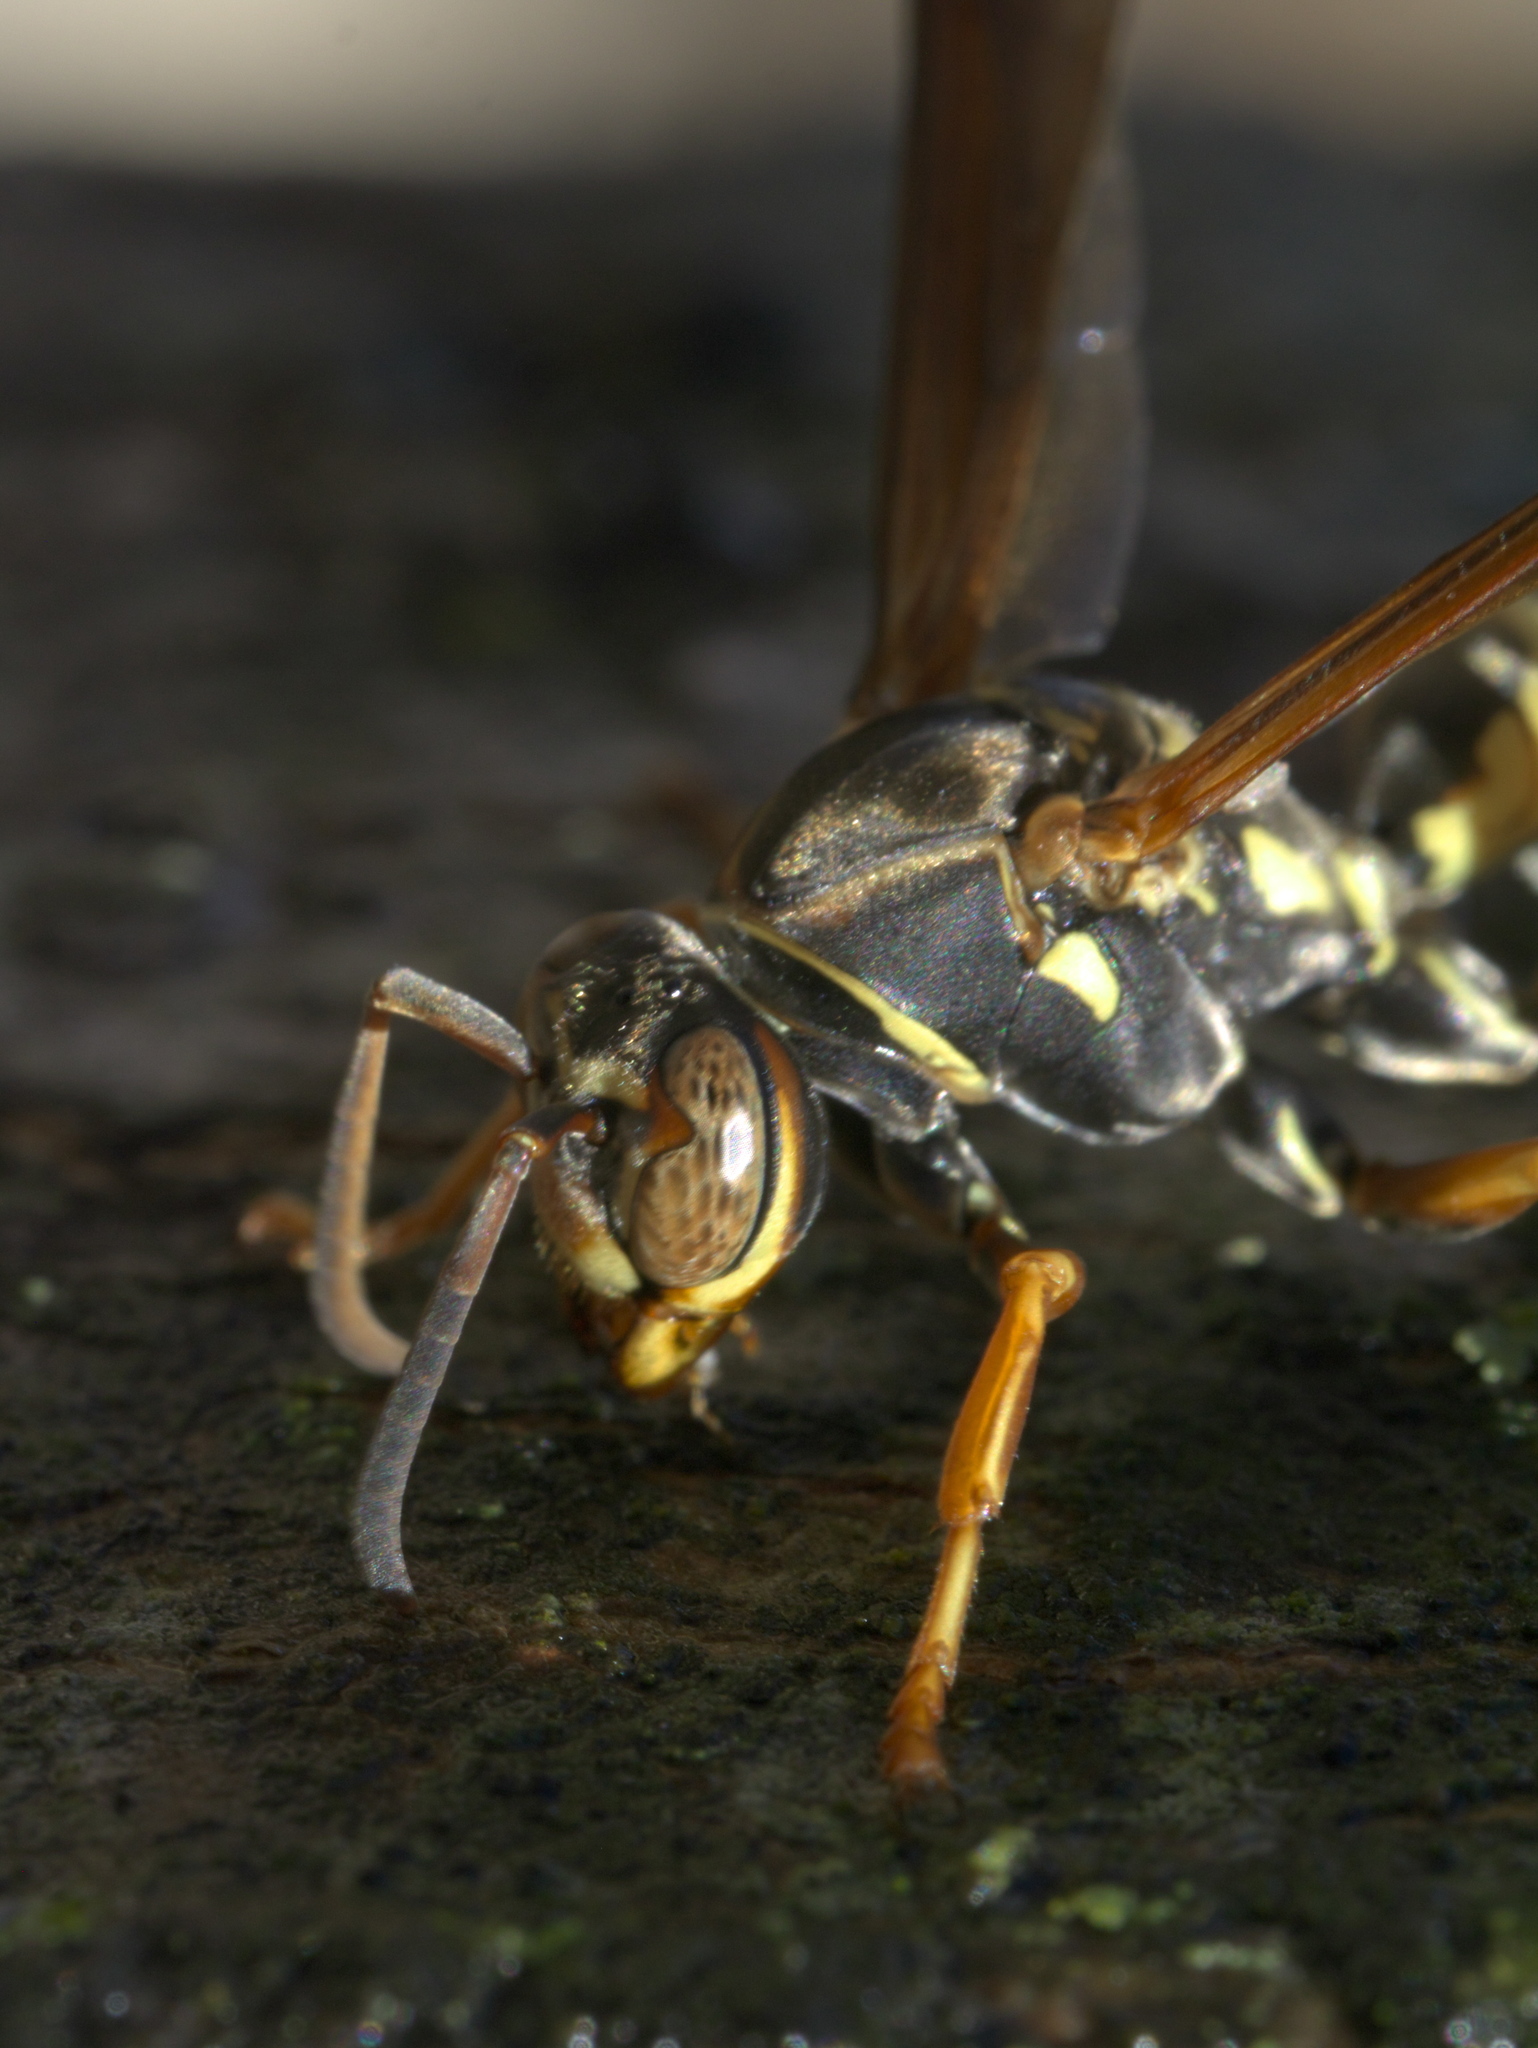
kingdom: Animalia
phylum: Arthropoda
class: Insecta
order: Hymenoptera
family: Vespidae
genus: Fuscopolistes
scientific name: Fuscopolistes
